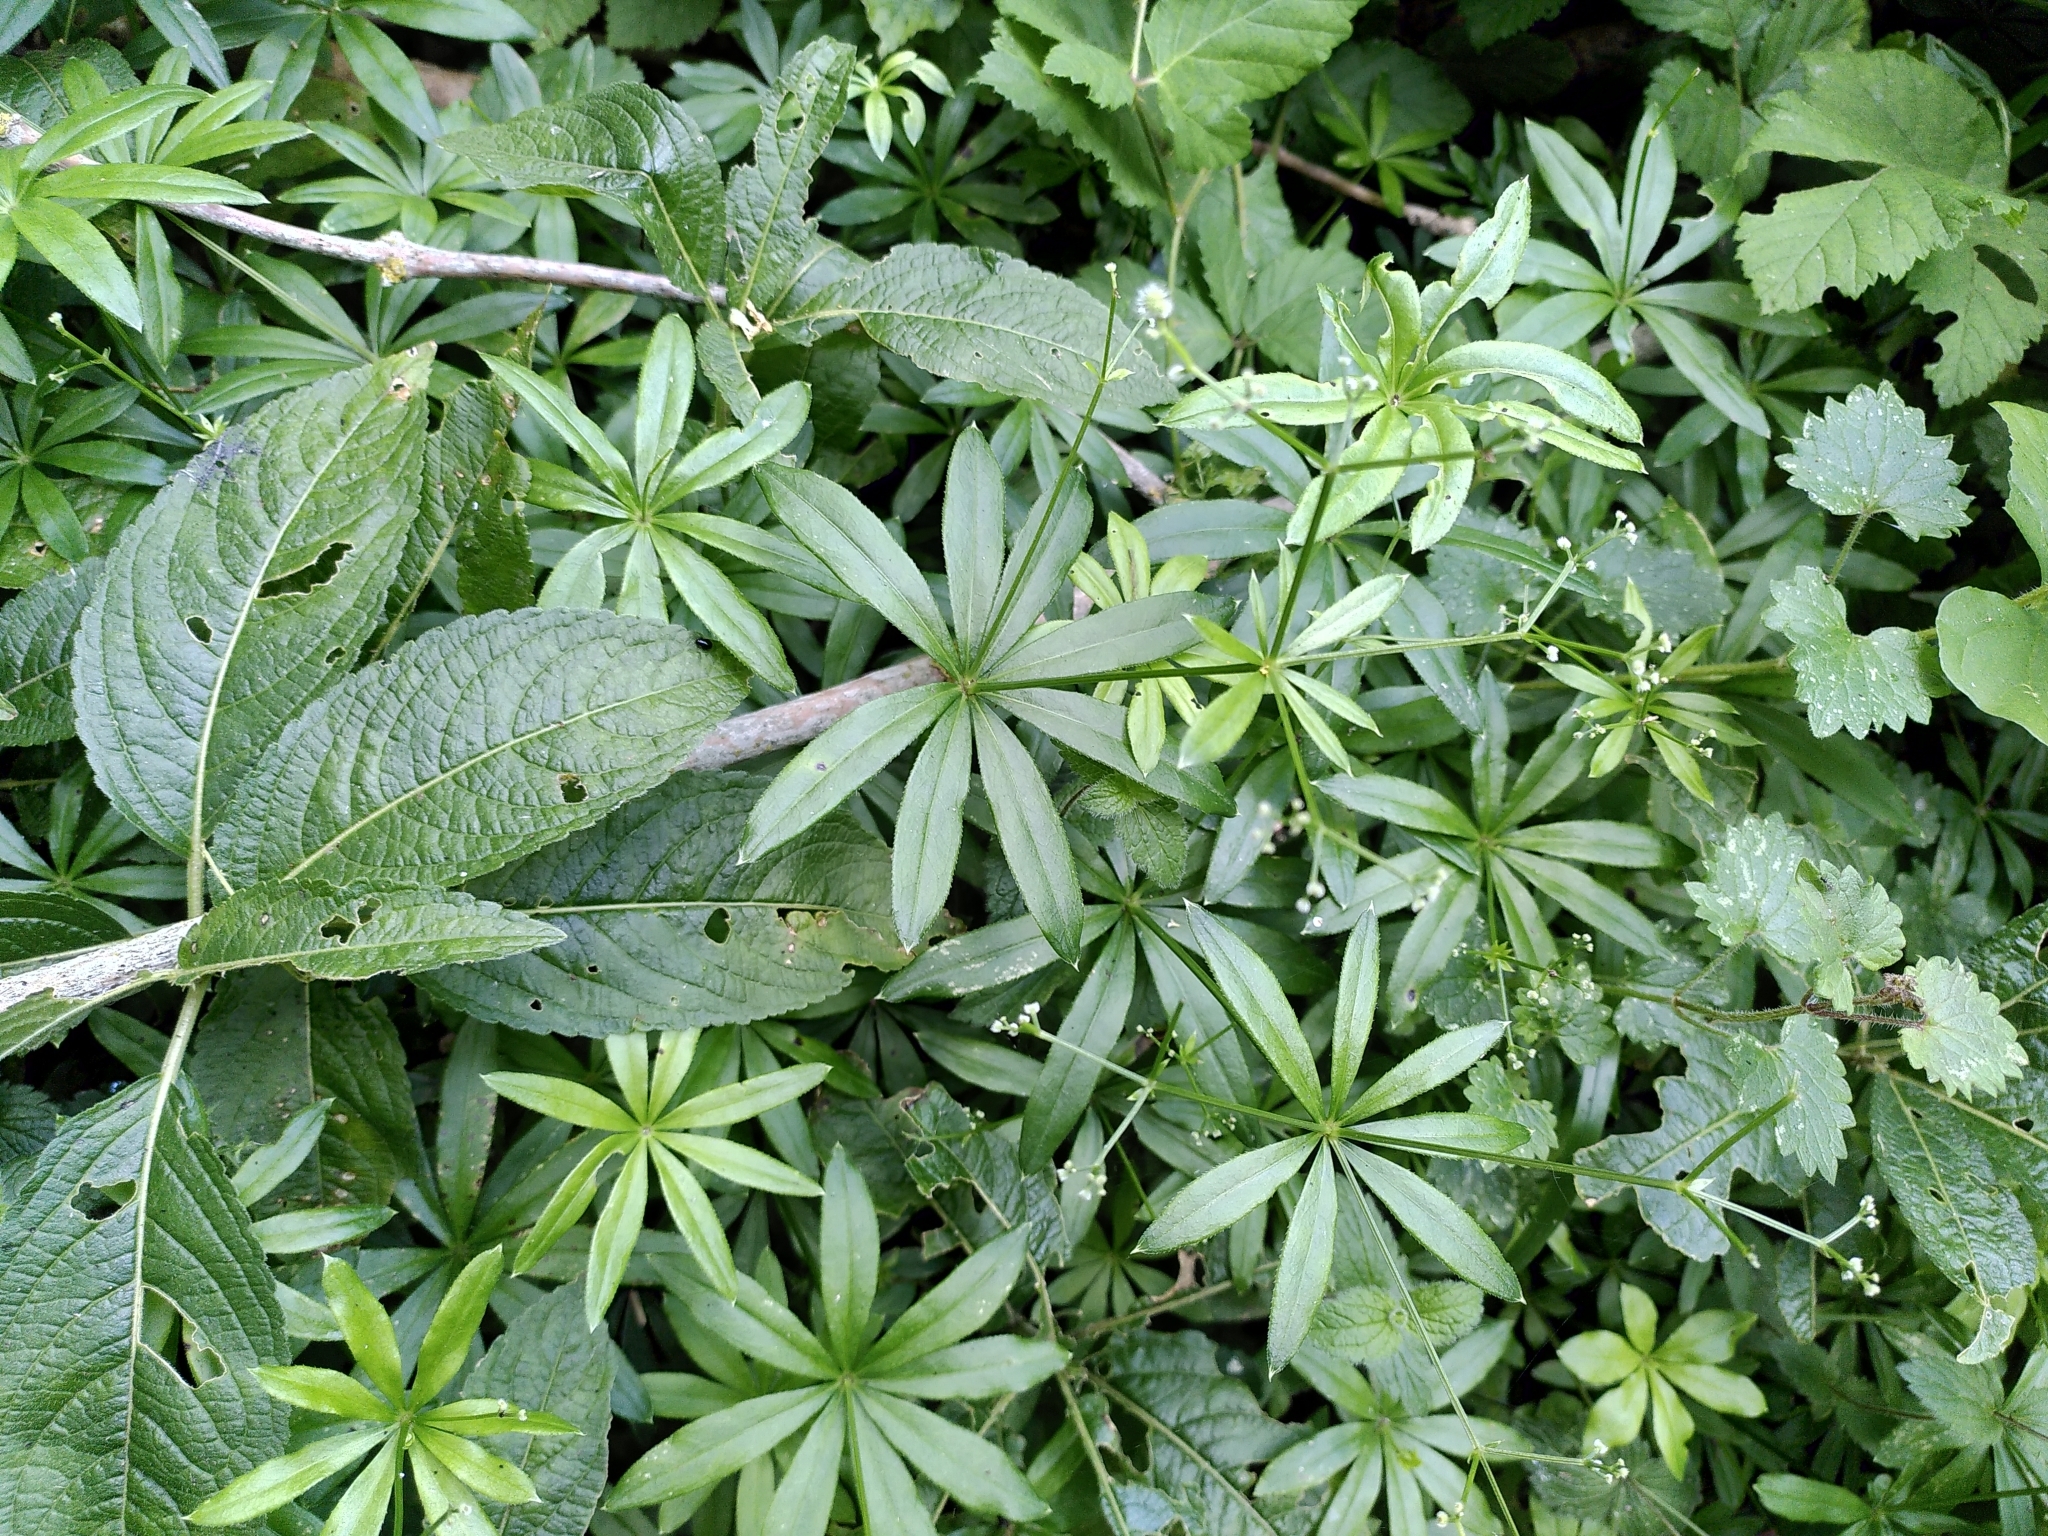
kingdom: Plantae
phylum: Tracheophyta
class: Magnoliopsida
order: Gentianales
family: Rubiaceae
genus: Galium
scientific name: Galium odoratum
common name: Sweet woodruff
